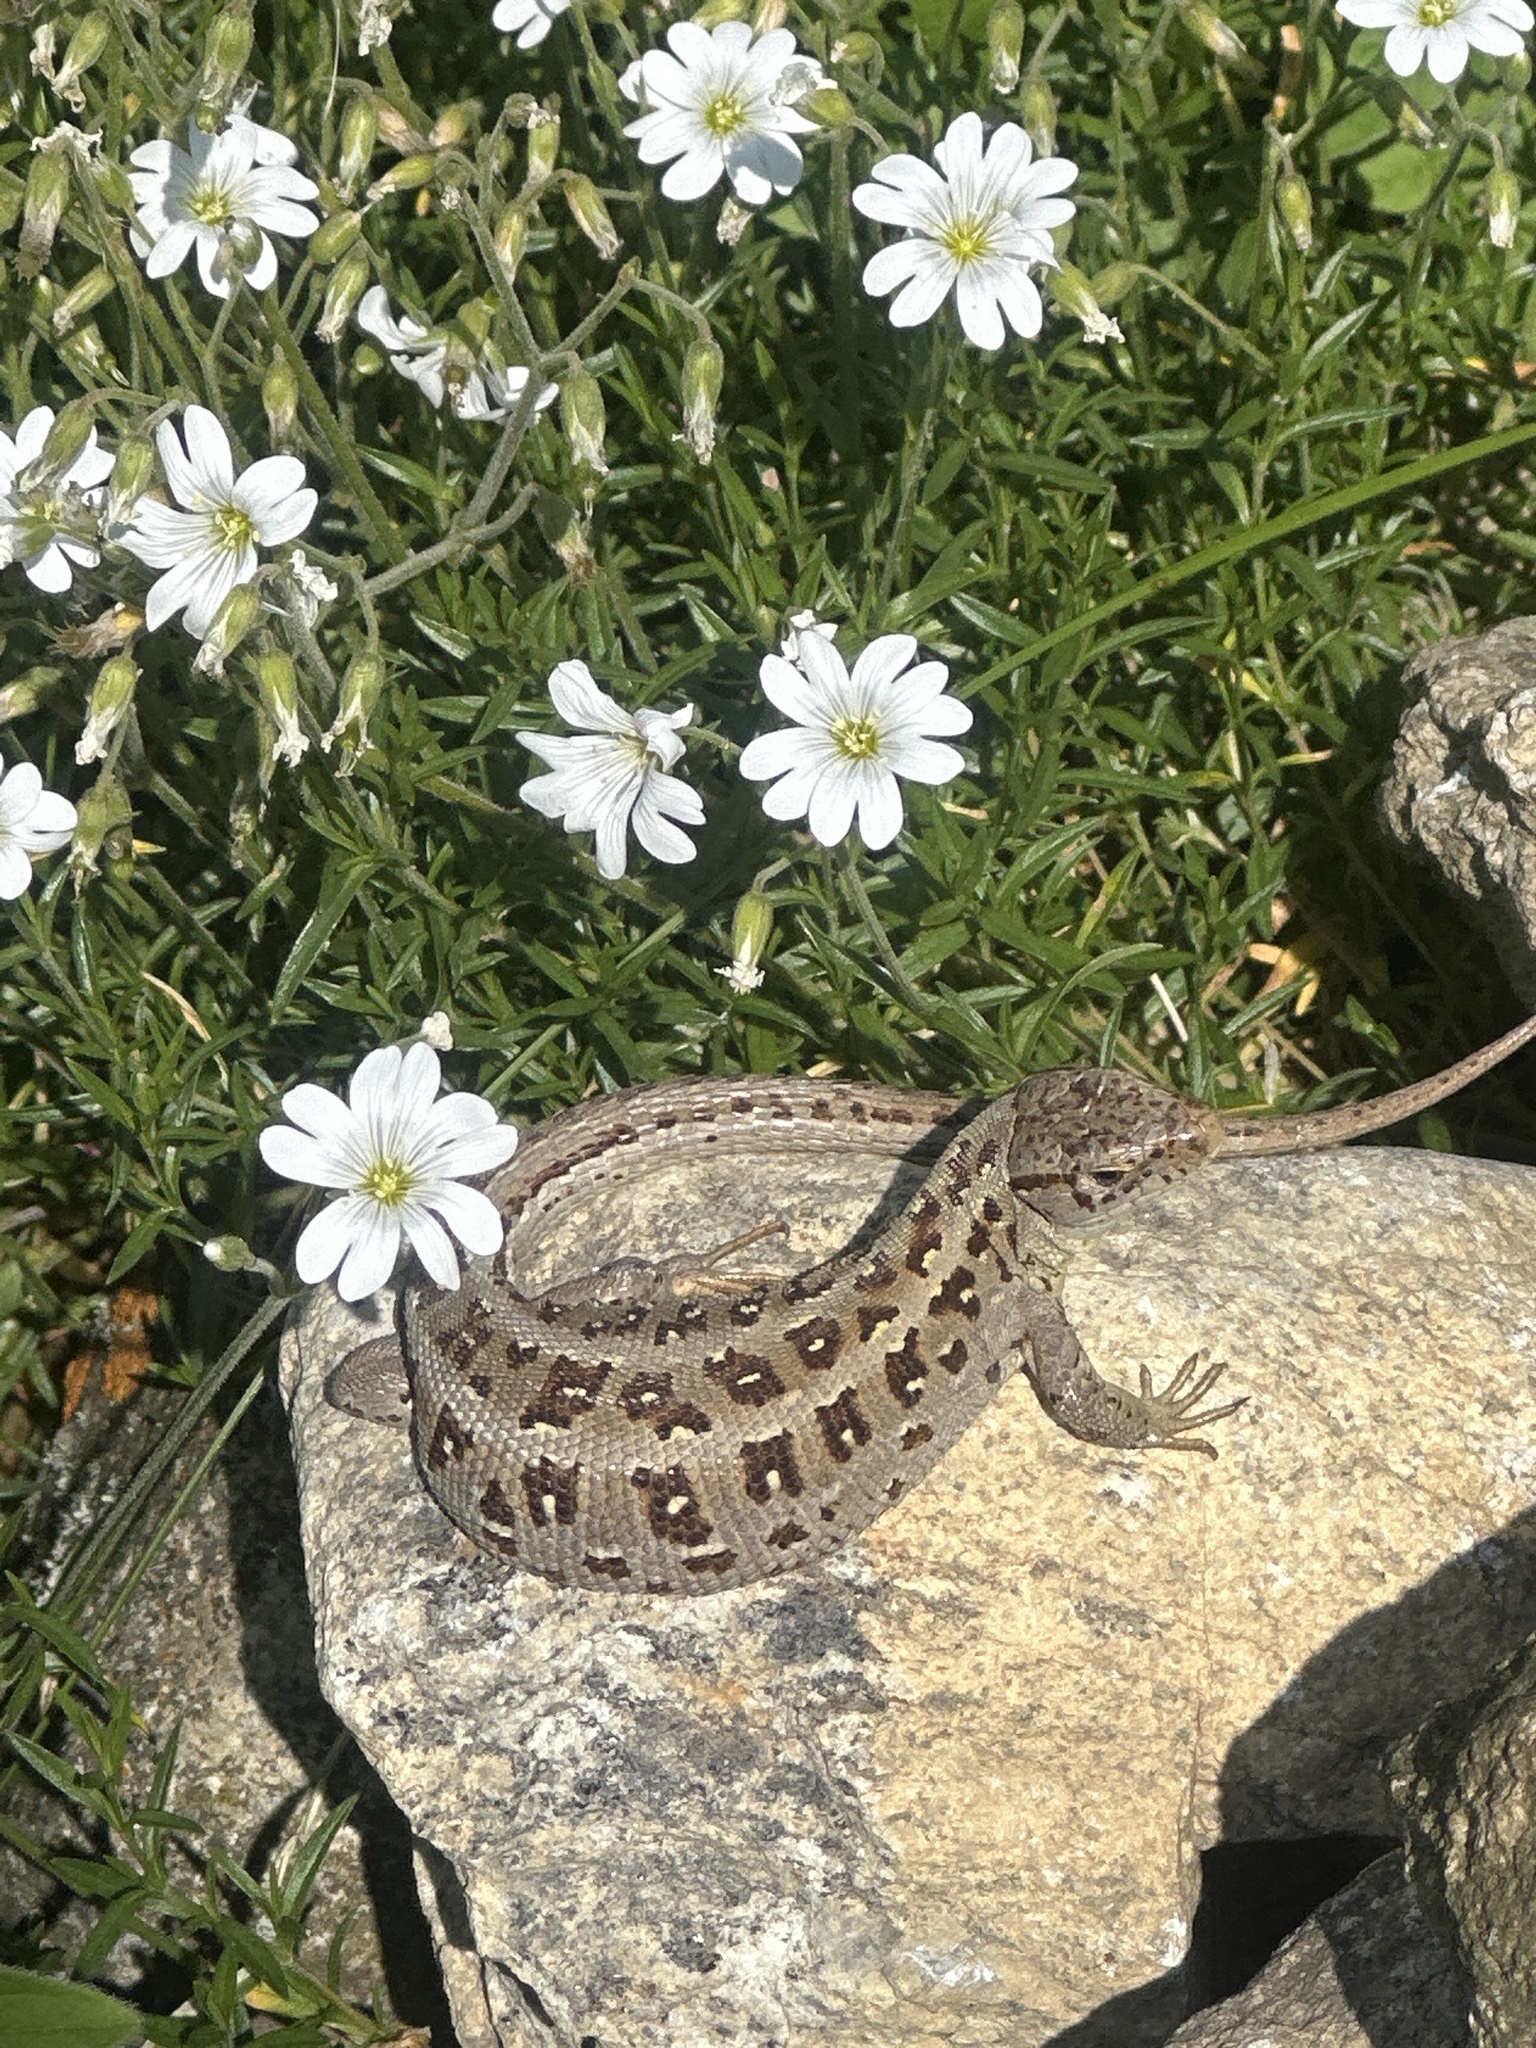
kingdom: Animalia
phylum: Chordata
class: Squamata
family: Lacertidae
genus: Lacerta
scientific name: Lacerta agilis
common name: Sand lizard
